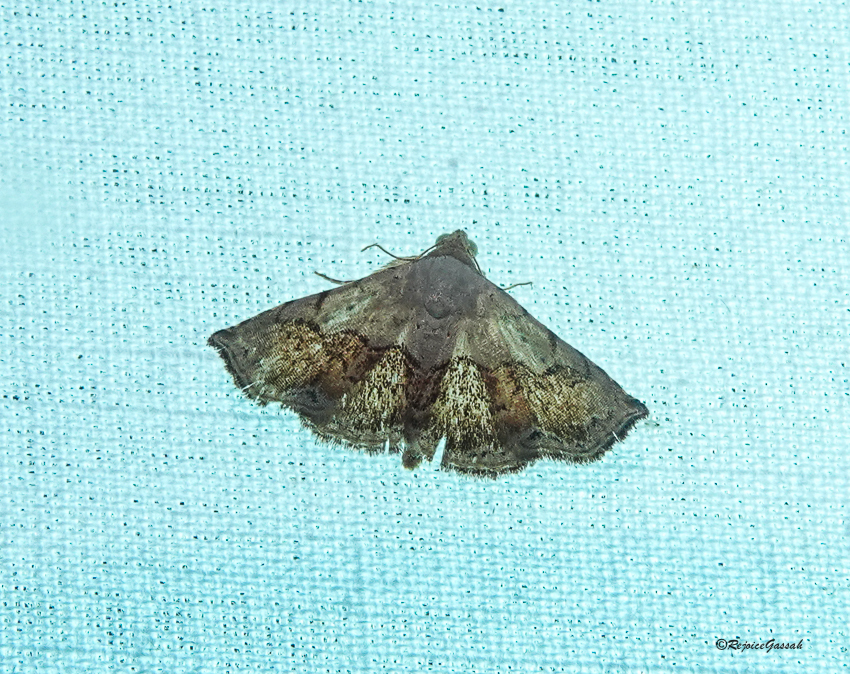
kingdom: Animalia
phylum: Arthropoda
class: Insecta
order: Lepidoptera
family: Noctuidae
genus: Eublemma
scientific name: Eublemma semirufa
